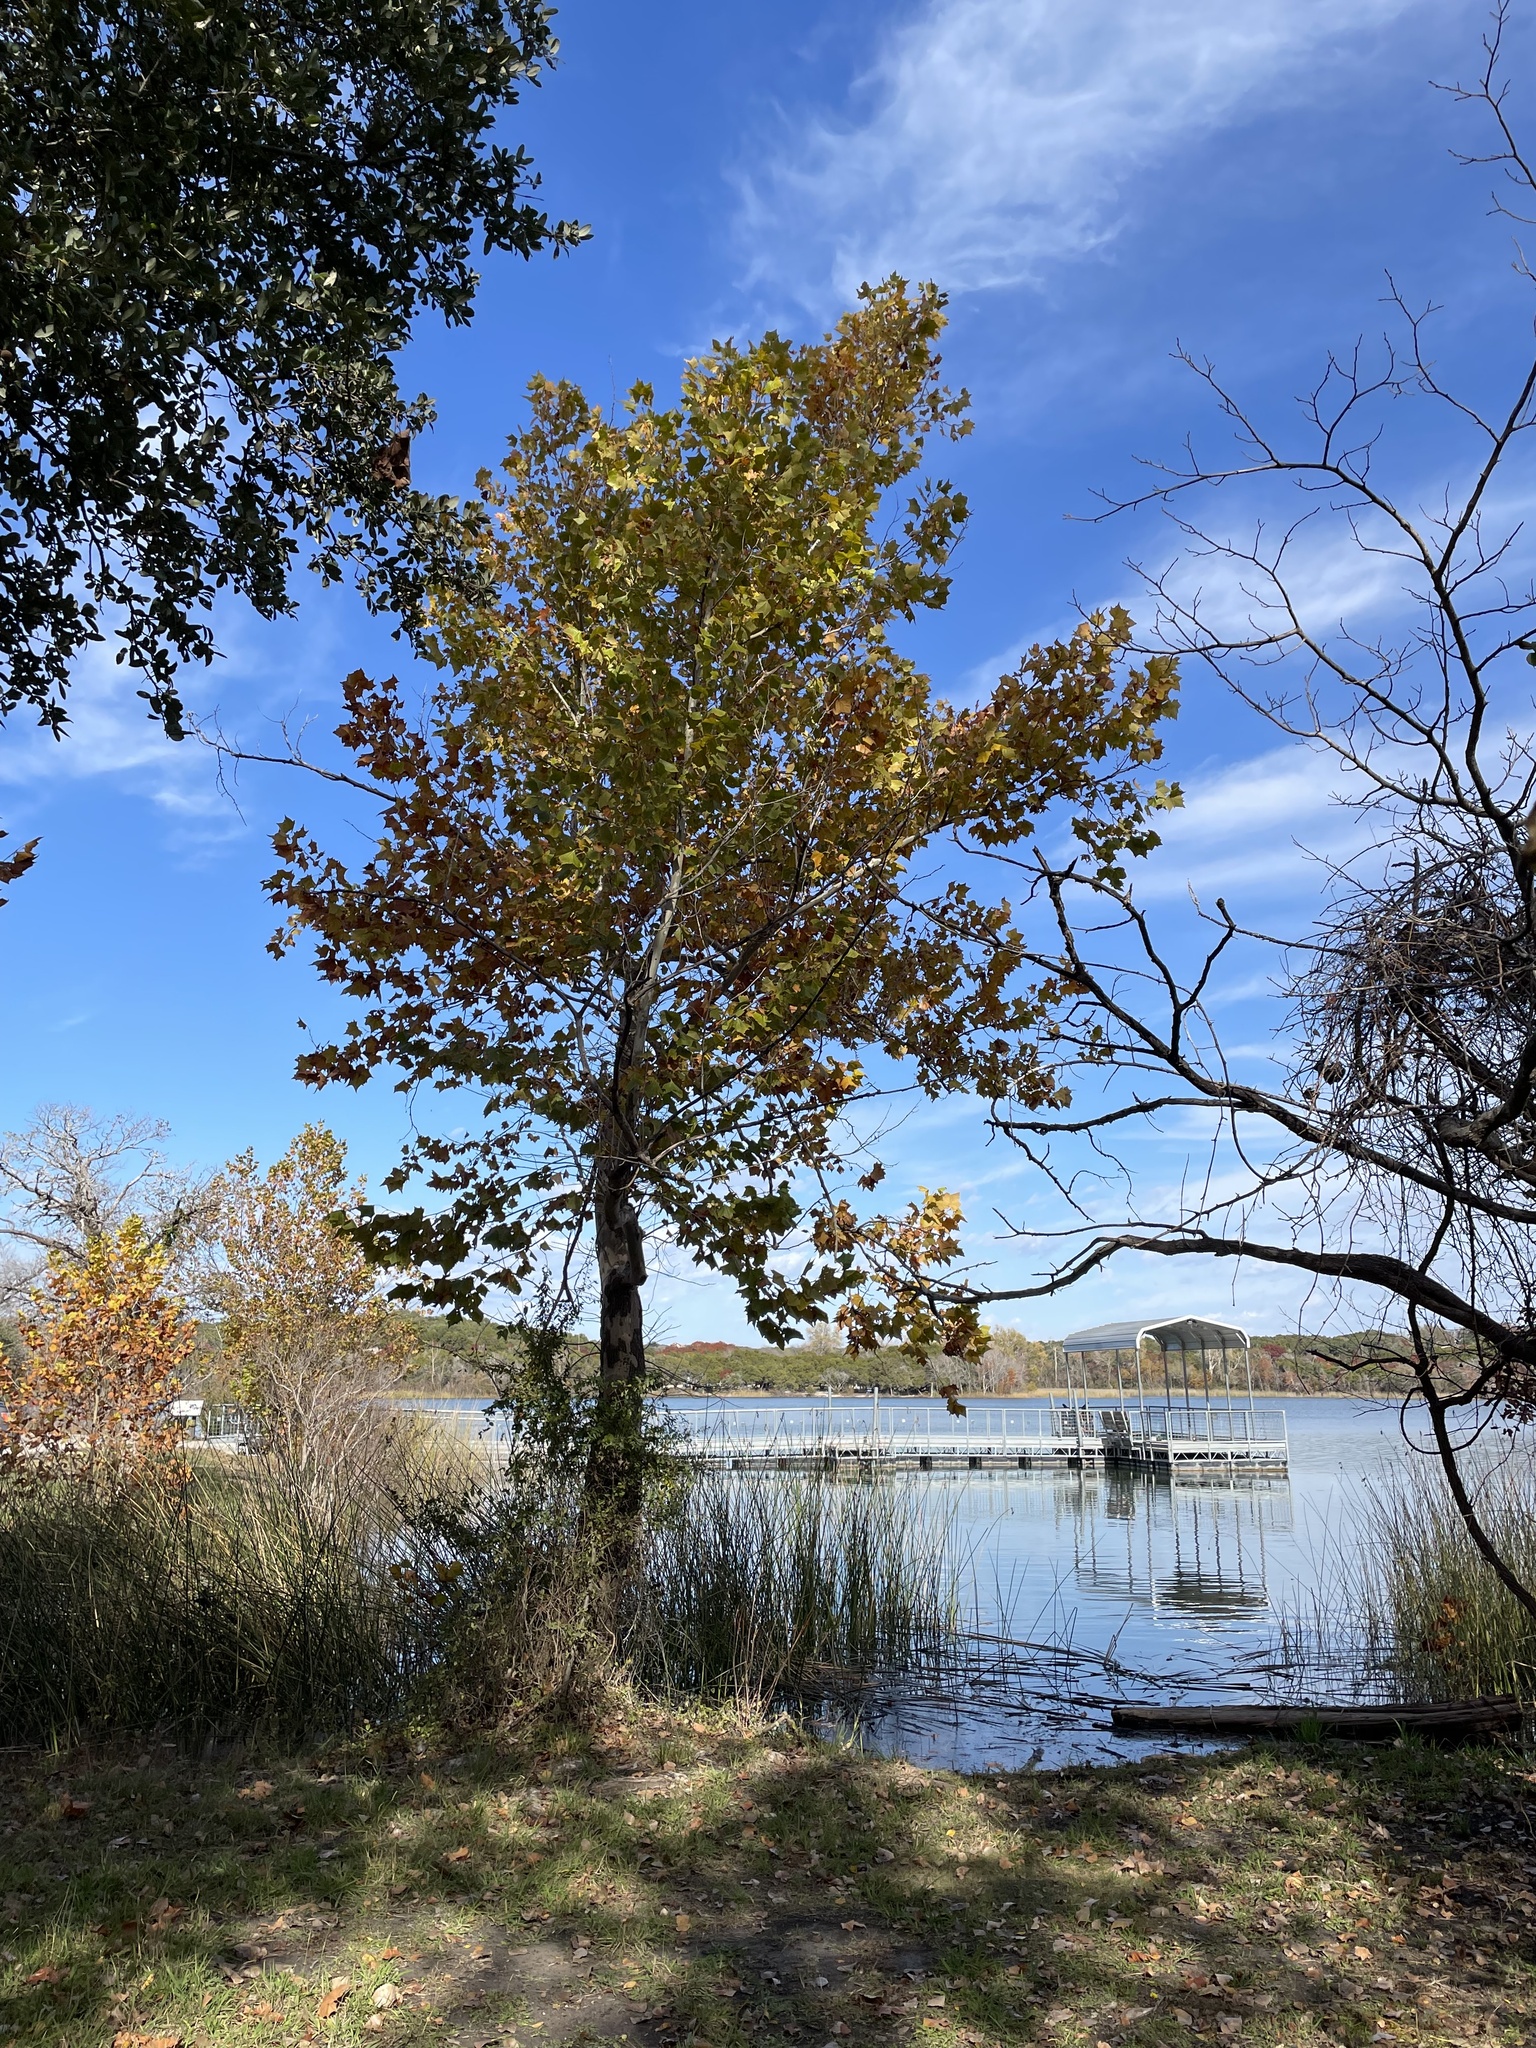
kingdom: Plantae
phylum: Tracheophyta
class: Magnoliopsida
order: Proteales
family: Platanaceae
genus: Platanus
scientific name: Platanus occidentalis
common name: American sycamore
